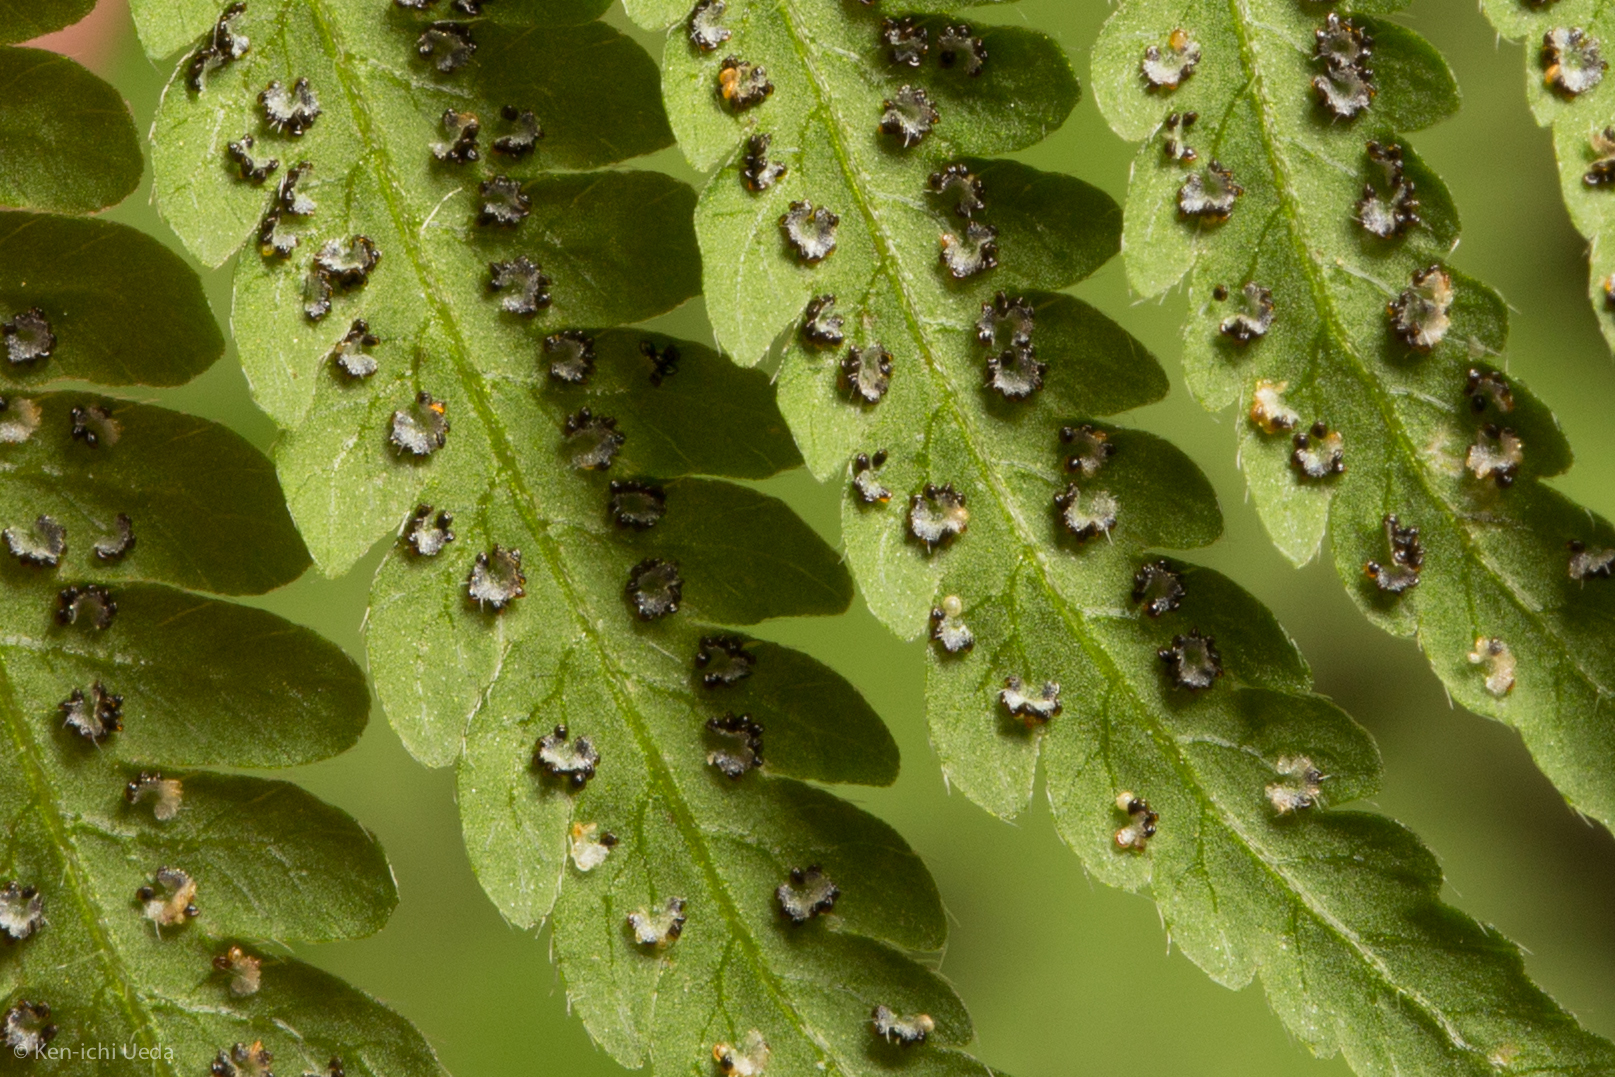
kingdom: Plantae
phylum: Tracheophyta
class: Polypodiopsida
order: Polypodiales
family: Thelypteridaceae
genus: Amauropelta
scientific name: Amauropelta noveboracensis
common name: New york fern
